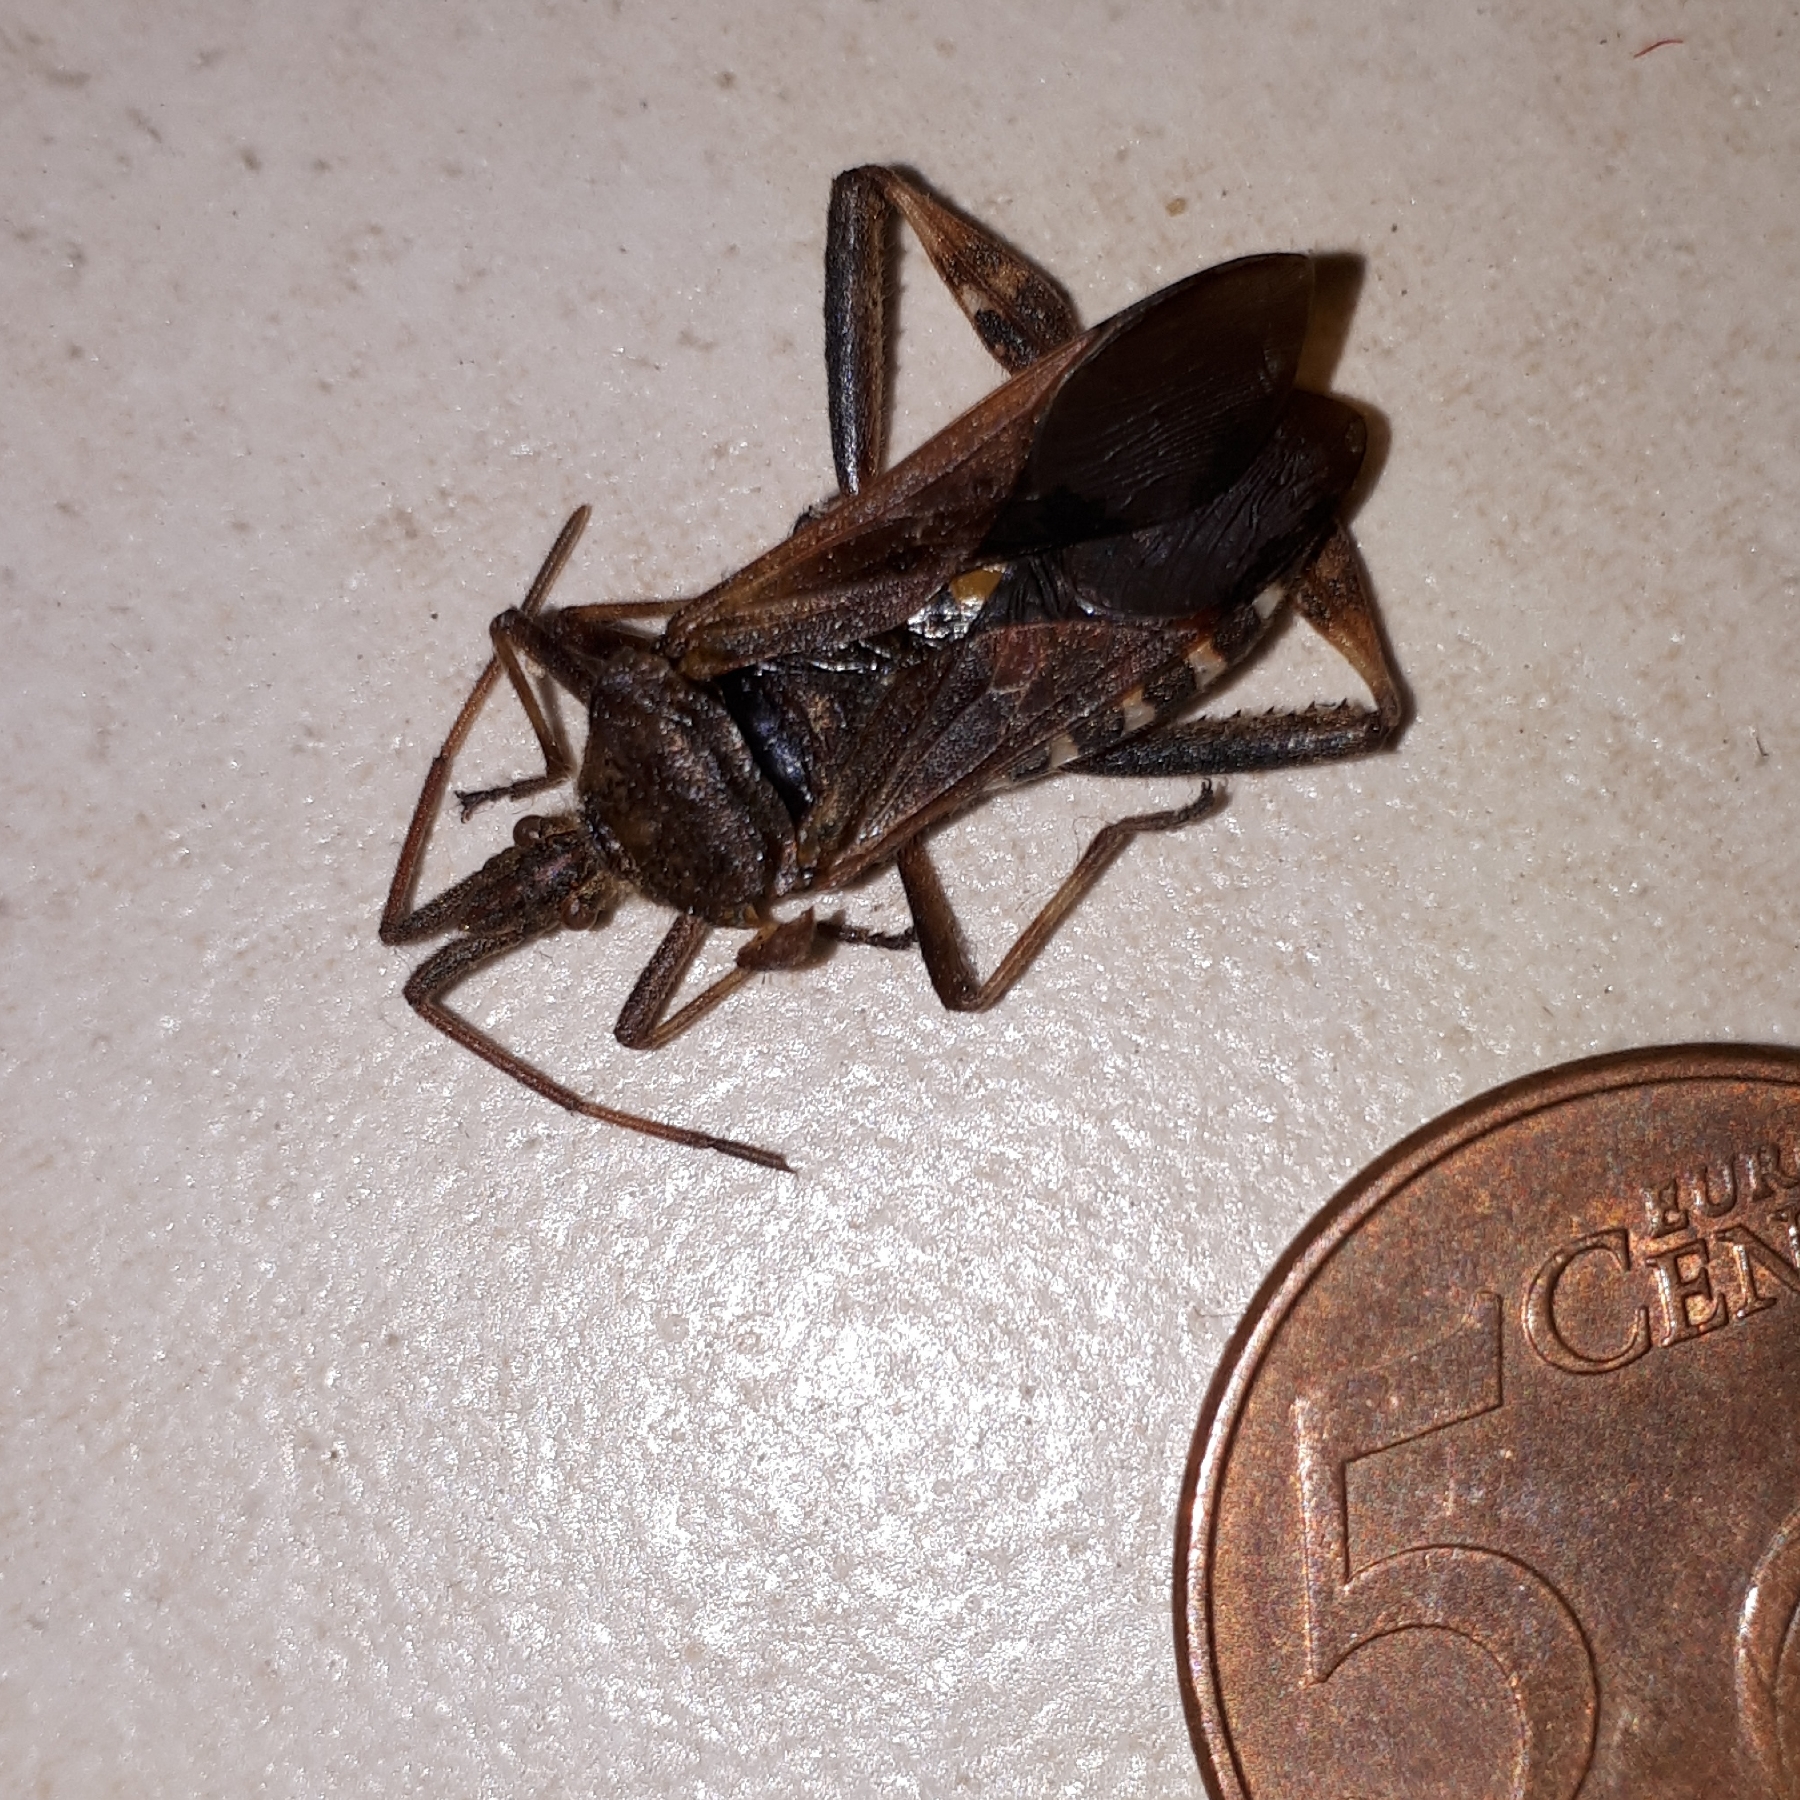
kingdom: Animalia
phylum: Arthropoda
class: Insecta
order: Hemiptera
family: Coreidae
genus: Leptoglossus
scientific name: Leptoglossus occidentalis
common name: Western conifer-seed bug
